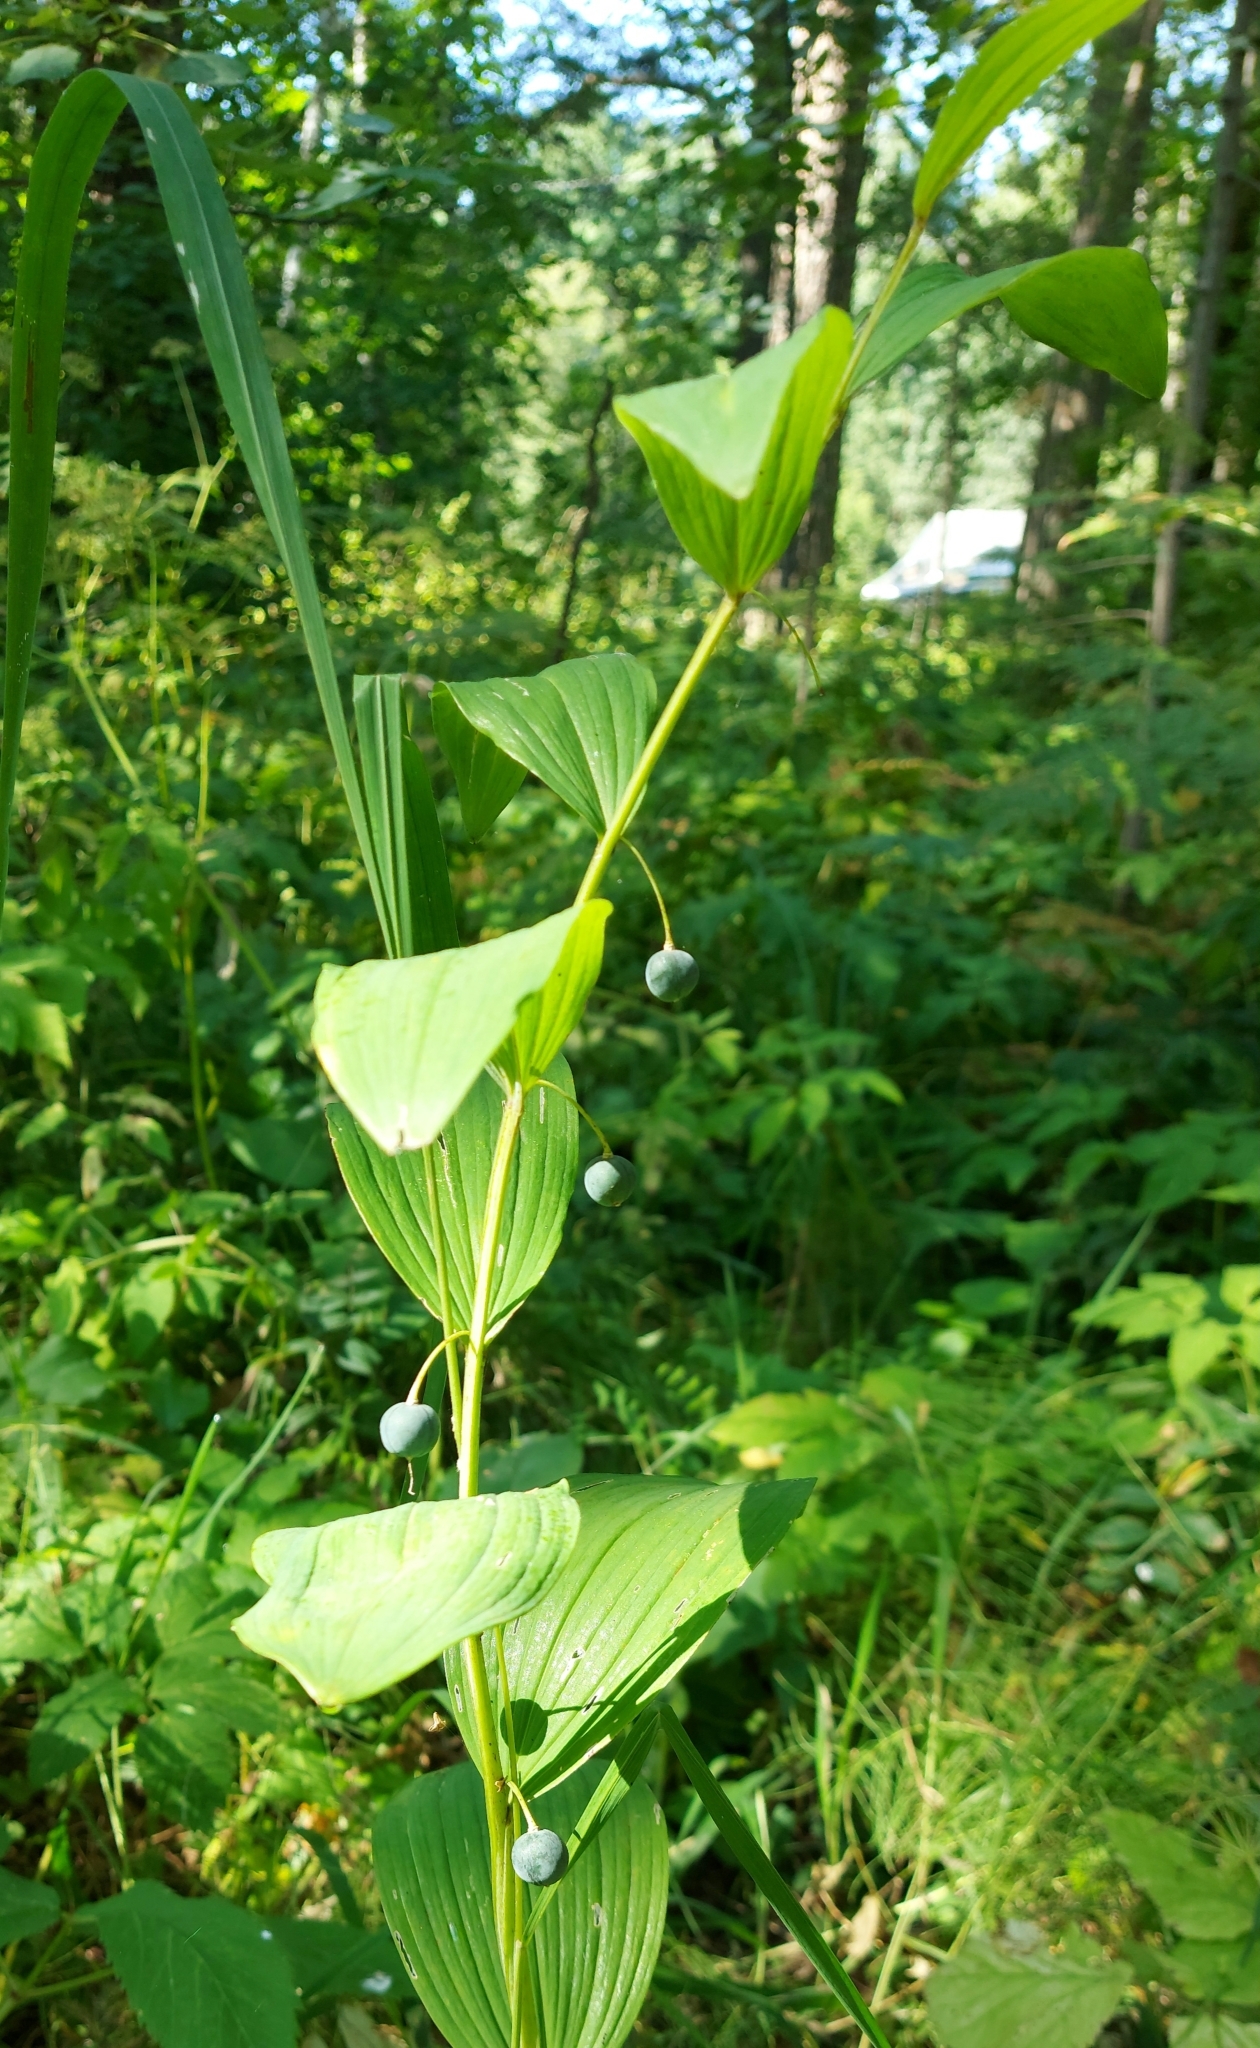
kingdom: Plantae
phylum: Tracheophyta
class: Liliopsida
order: Asparagales
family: Asparagaceae
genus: Polygonatum
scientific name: Polygonatum odoratum
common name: Angular solomon's-seal
